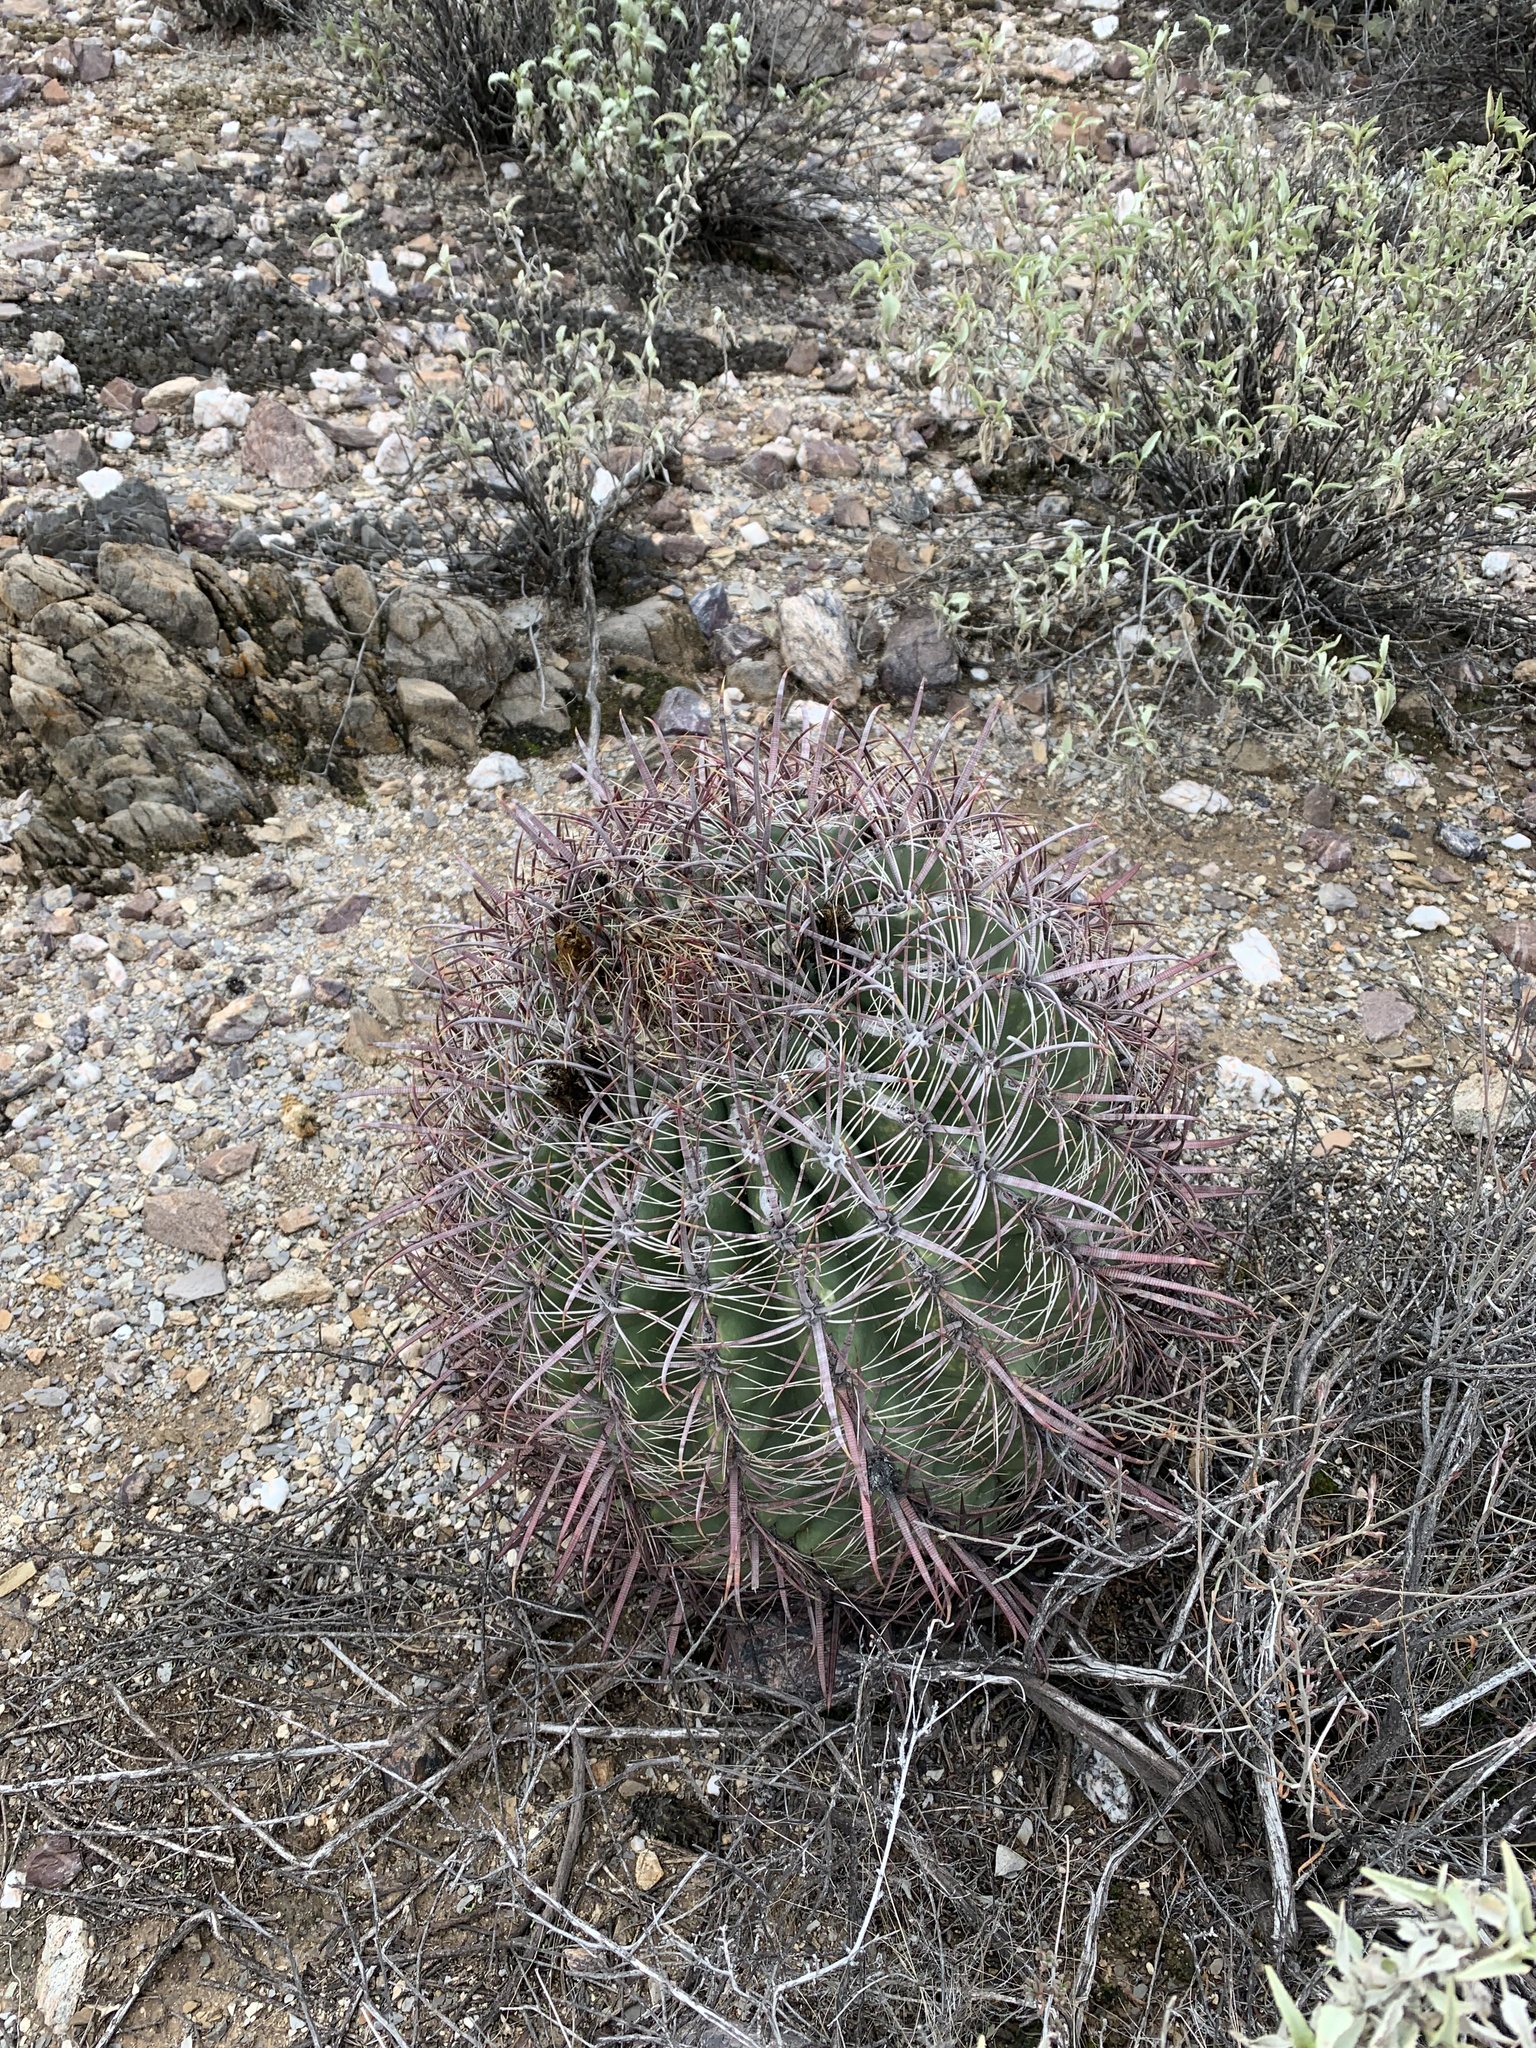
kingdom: Plantae
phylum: Tracheophyta
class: Magnoliopsida
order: Caryophyllales
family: Cactaceae
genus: Ferocactus
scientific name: Ferocactus cylindraceus
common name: California barrel cactus
